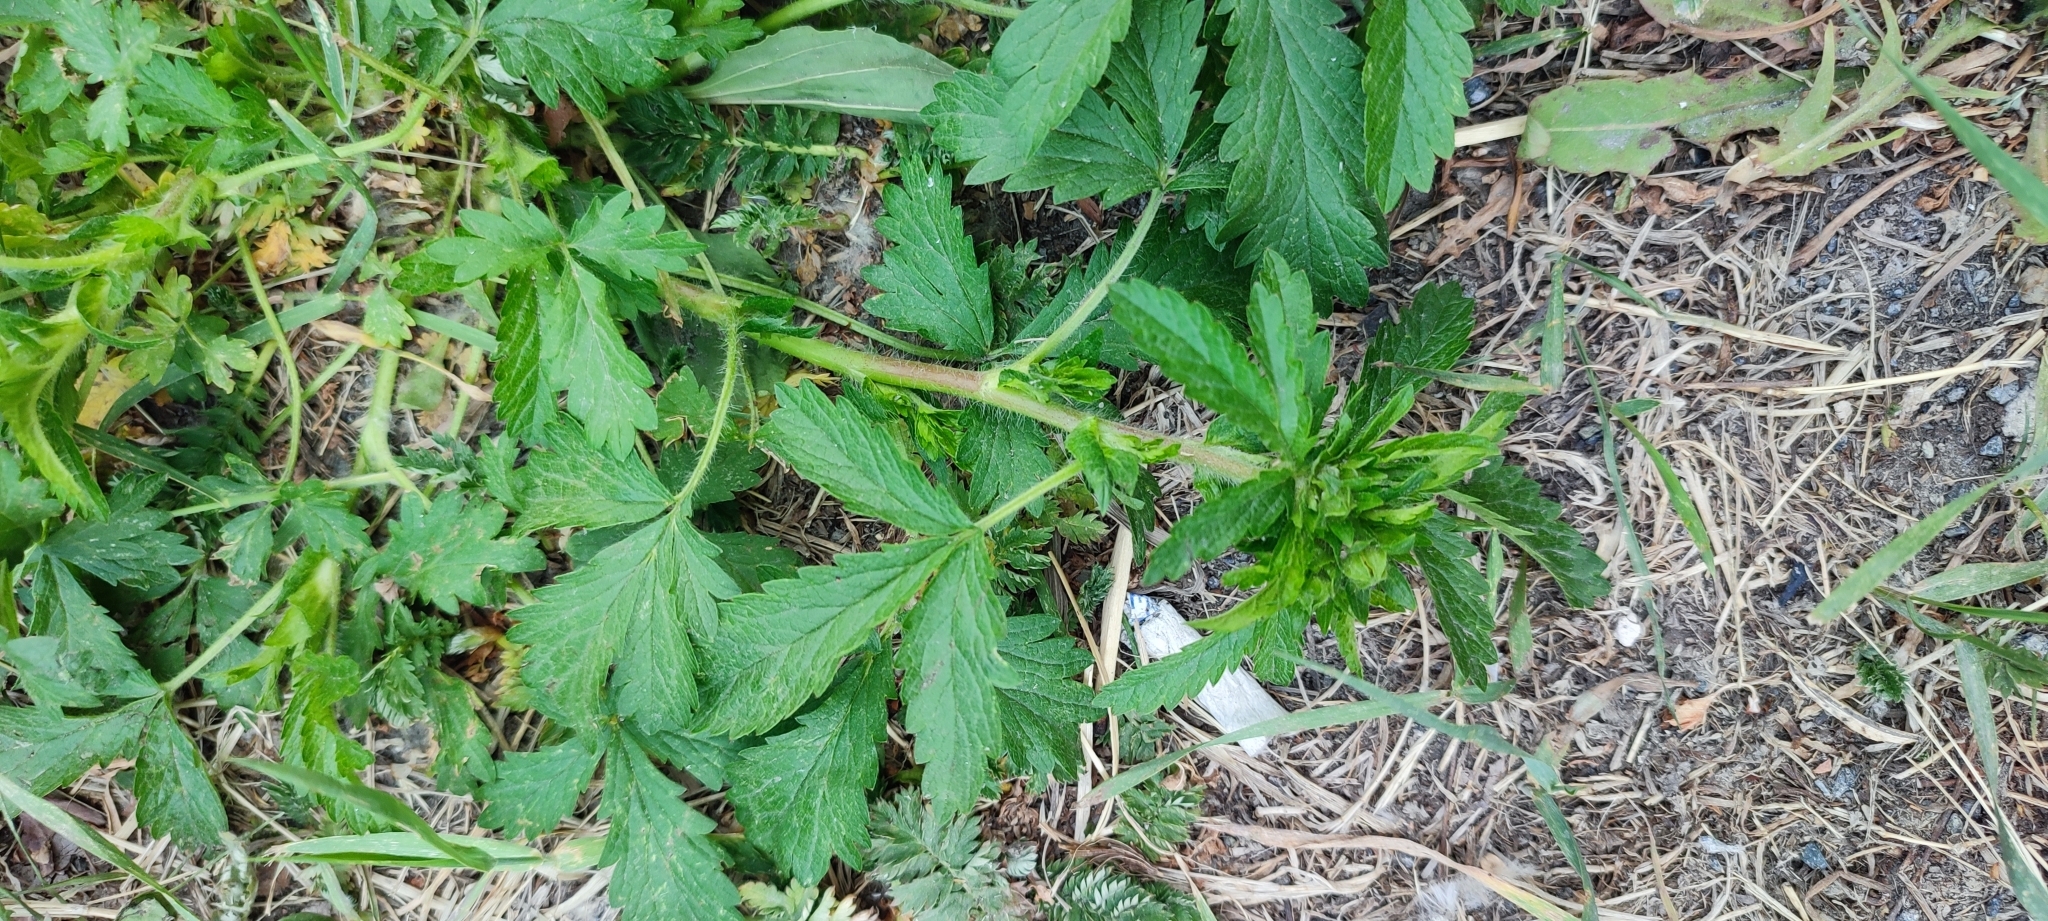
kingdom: Plantae
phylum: Tracheophyta
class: Magnoliopsida
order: Rosales
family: Rosaceae
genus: Potentilla
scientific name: Potentilla norvegica
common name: Ternate-leaved cinquefoil
